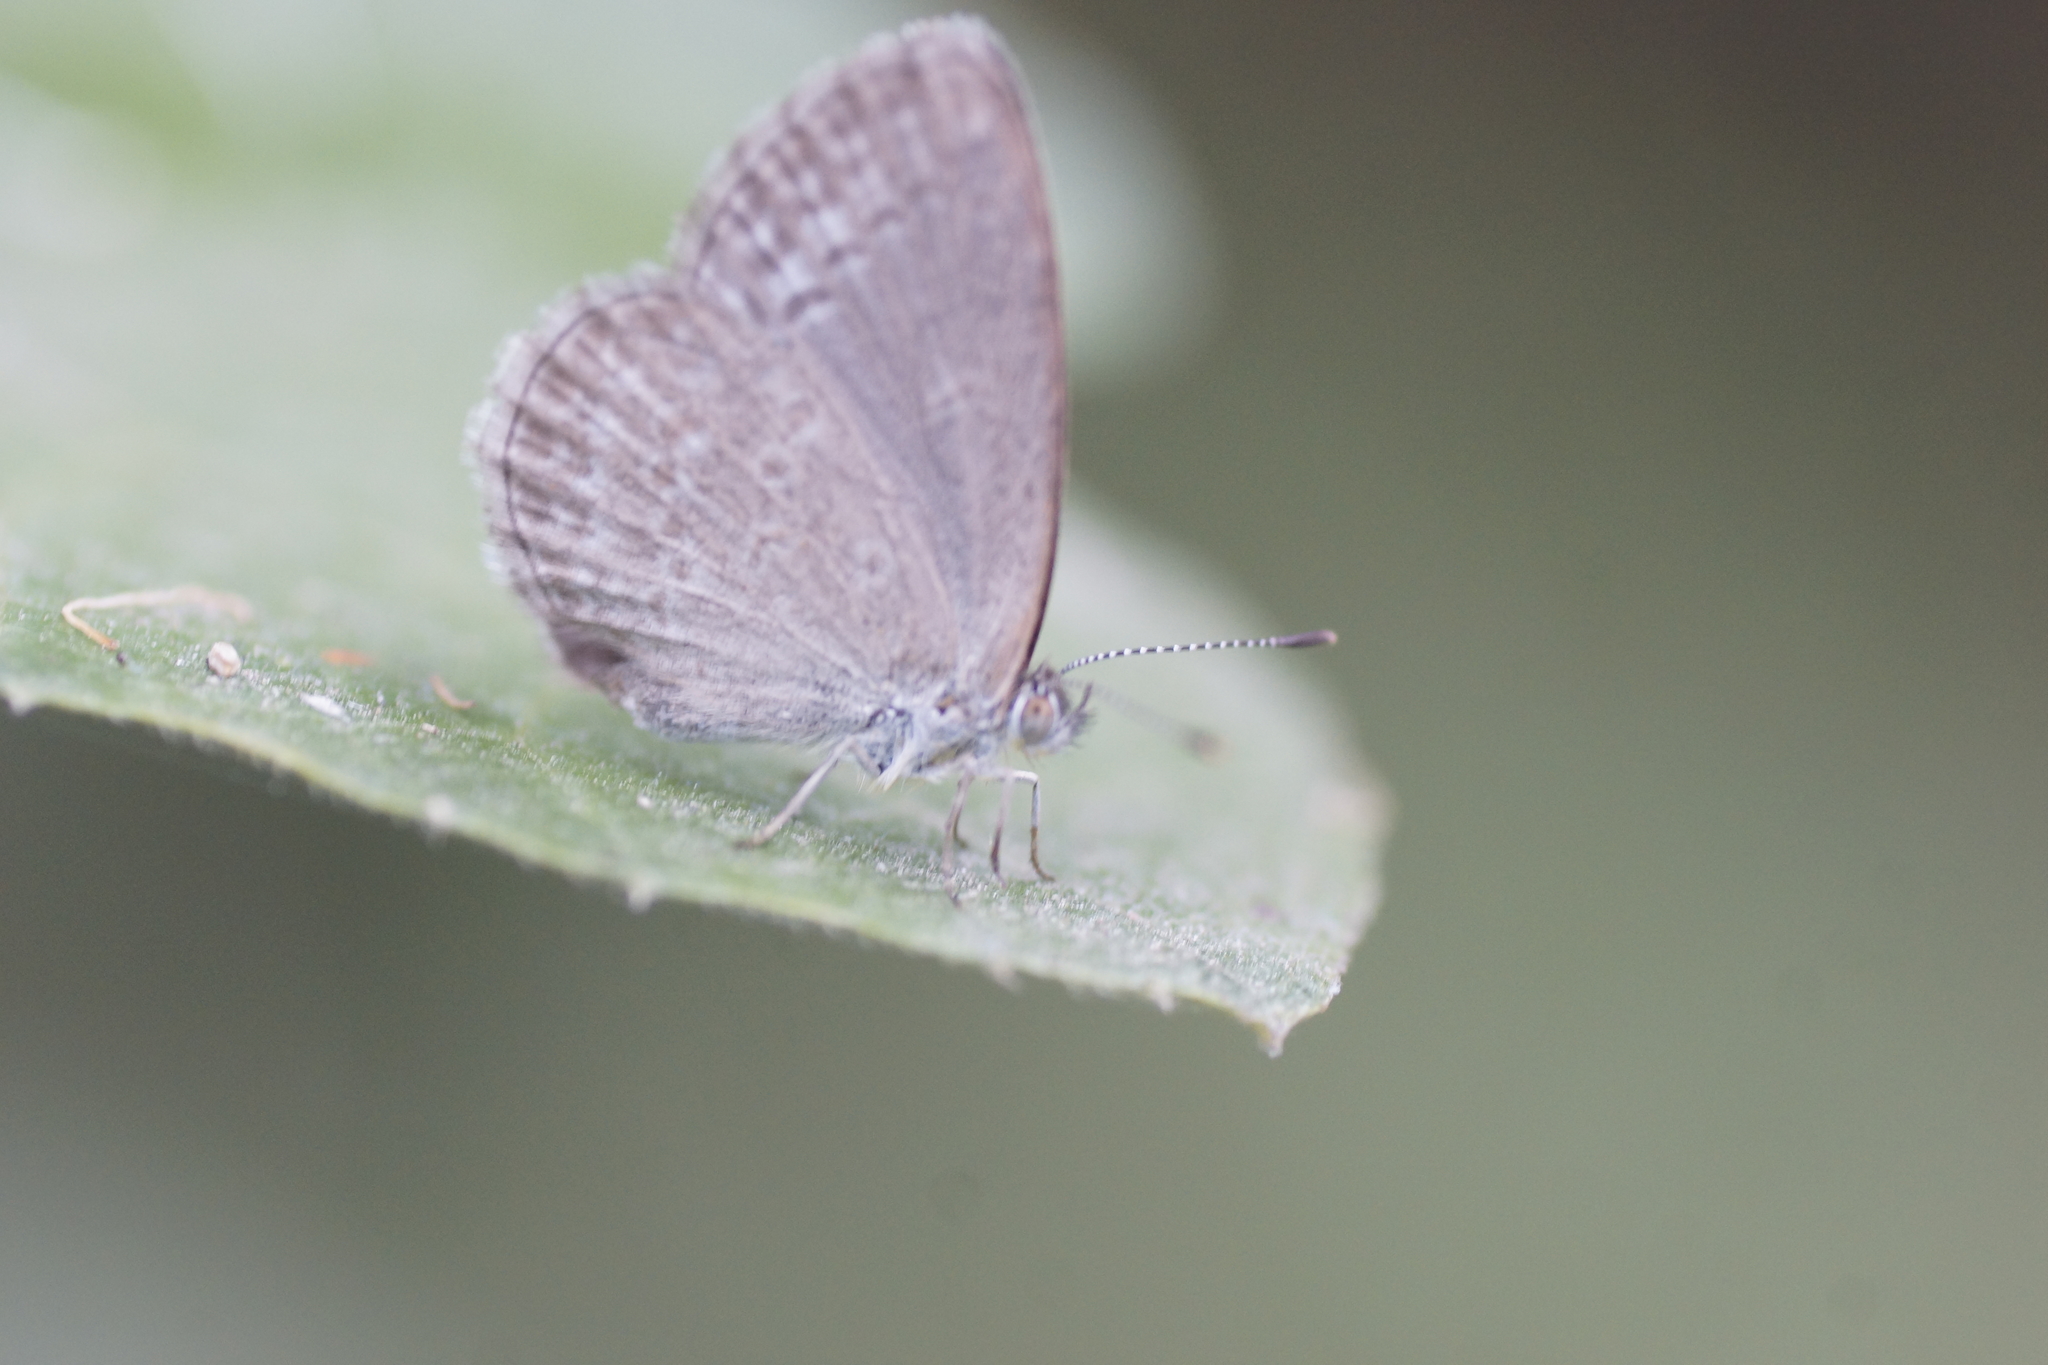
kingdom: Animalia
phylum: Arthropoda
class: Insecta
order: Lepidoptera
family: Lycaenidae
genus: Zizina
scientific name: Zizina labradus
